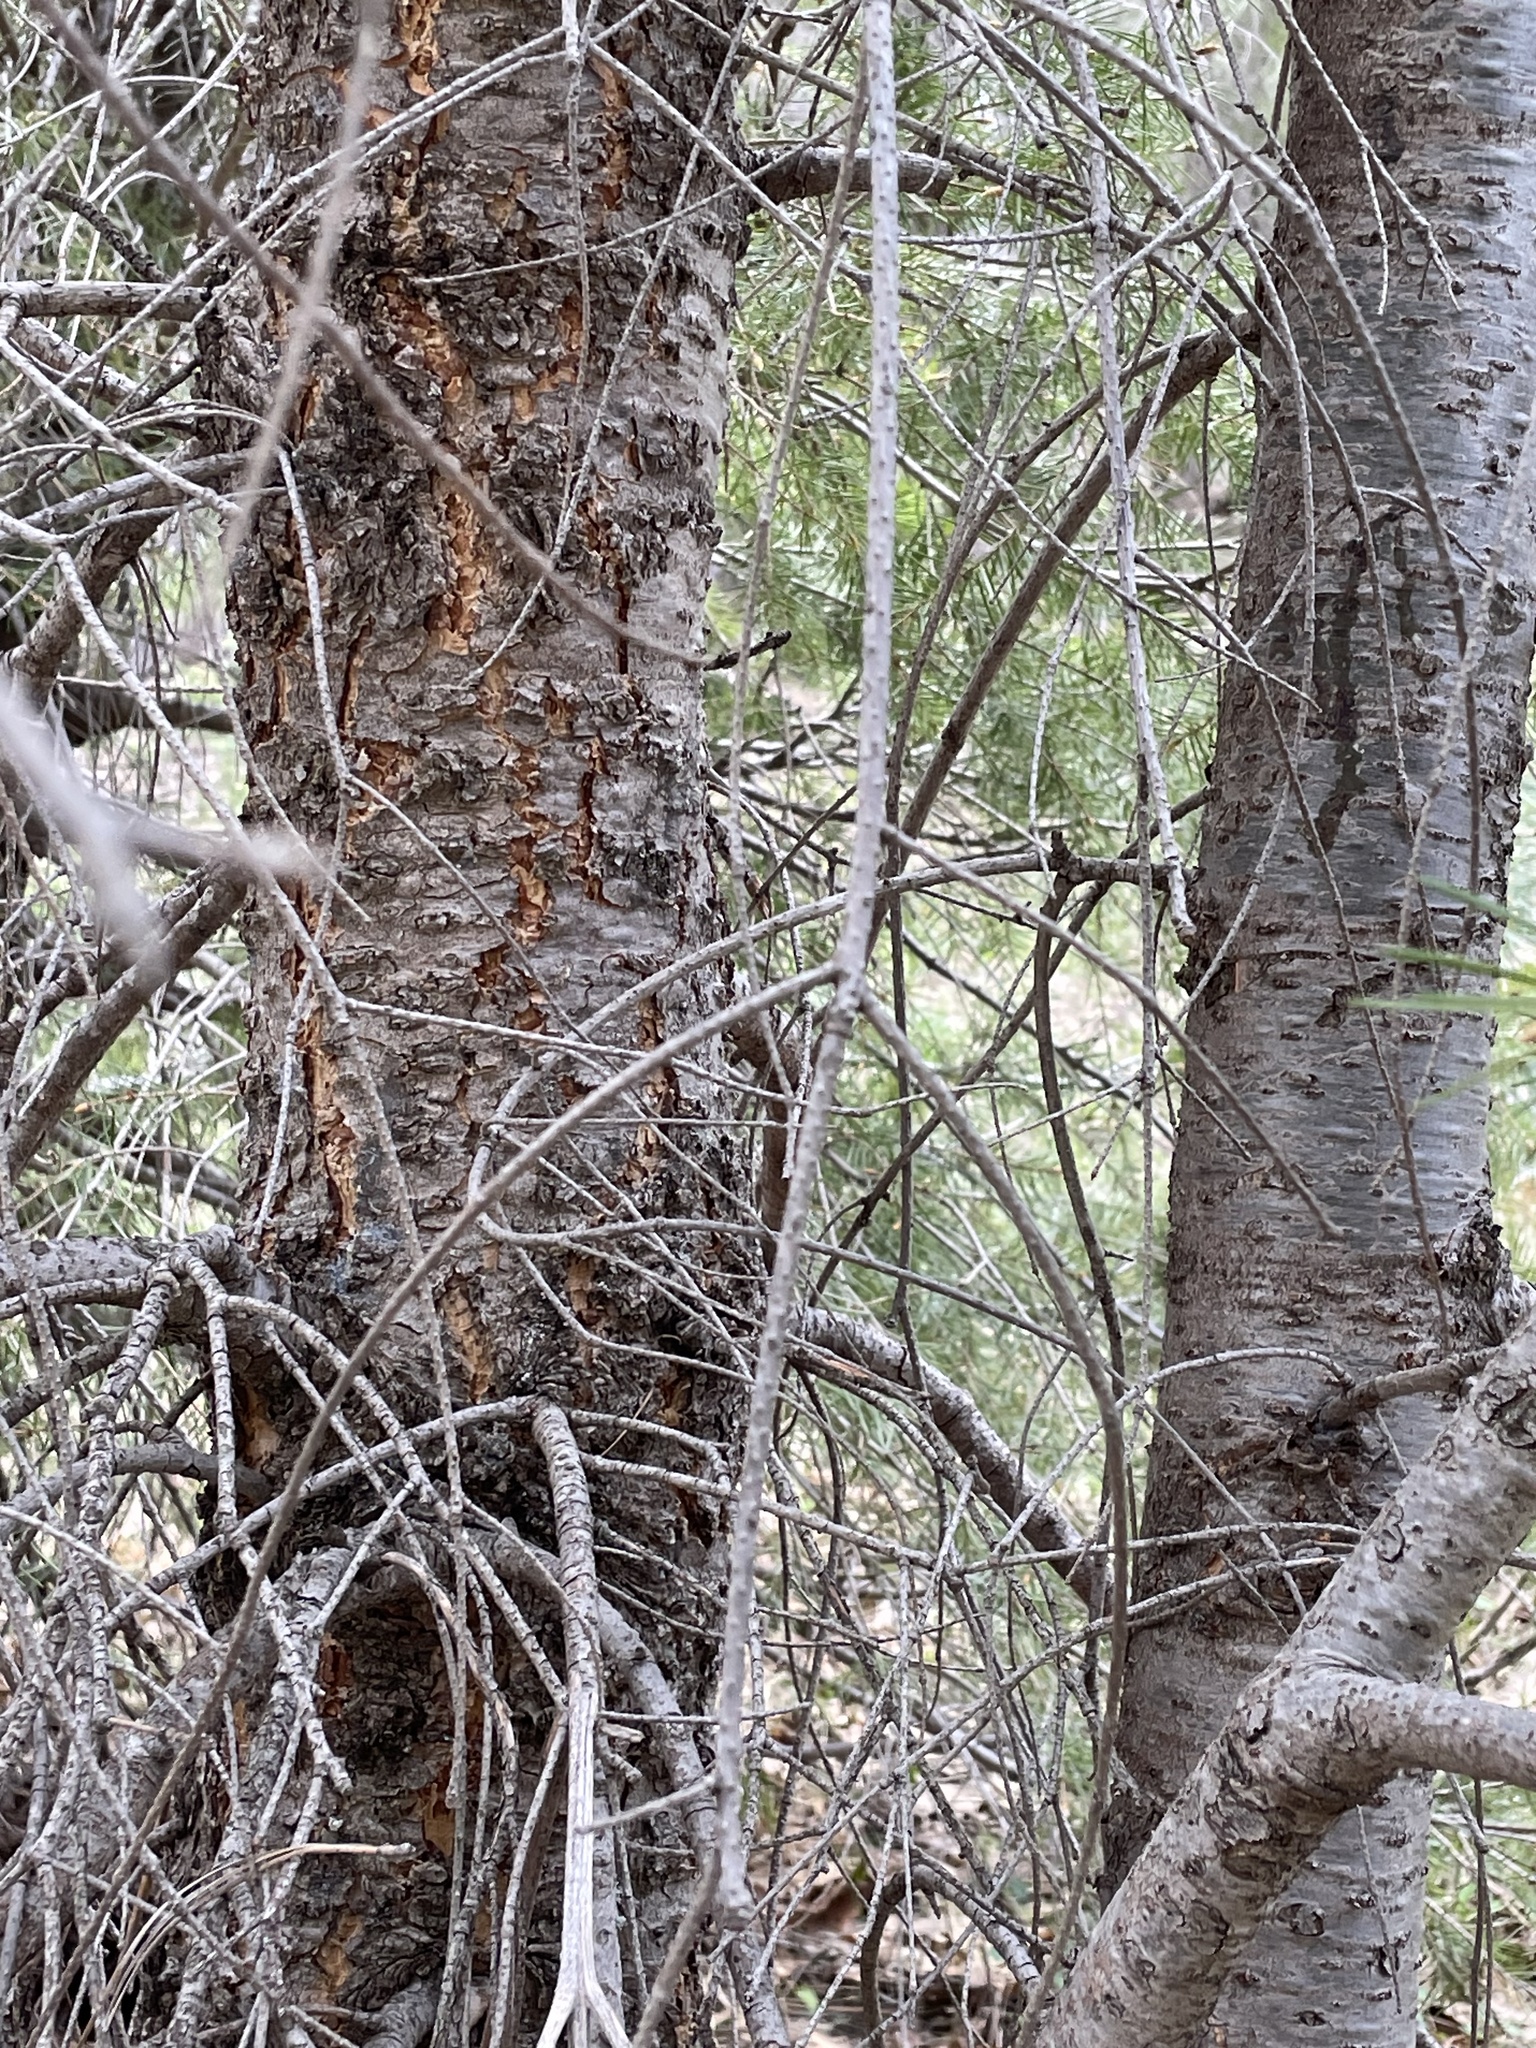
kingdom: Plantae
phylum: Tracheophyta
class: Pinopsida
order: Pinales
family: Pinaceae
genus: Pseudotsuga
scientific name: Pseudotsuga menziesii
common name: Douglas fir
